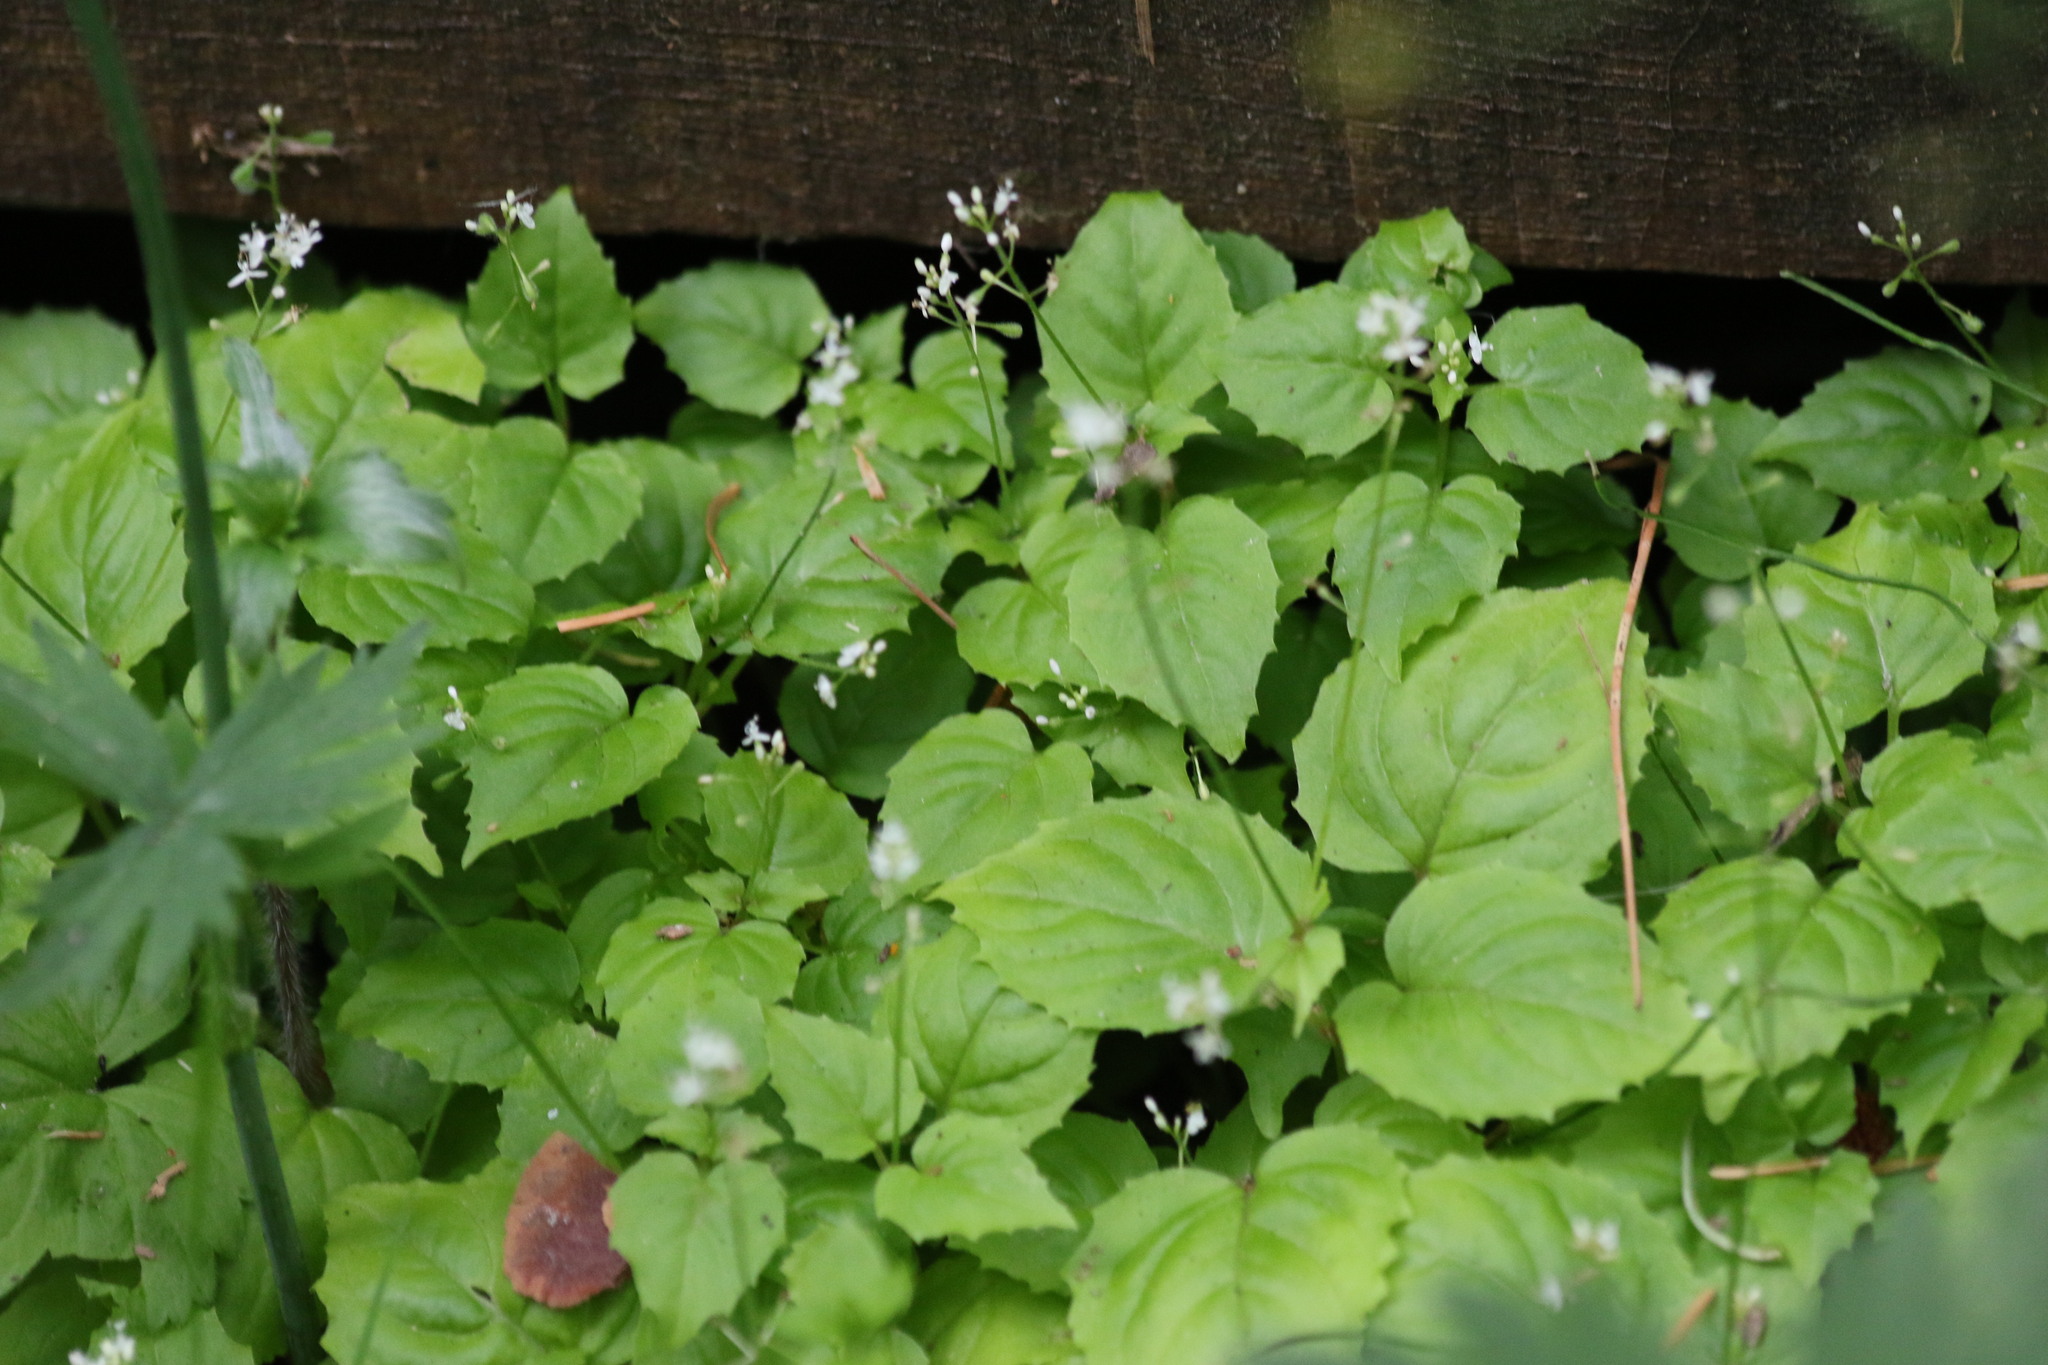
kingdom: Plantae
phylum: Tracheophyta
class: Magnoliopsida
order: Myrtales
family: Onagraceae
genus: Circaea
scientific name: Circaea alpina
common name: Alpine enchanter's-nightshade
